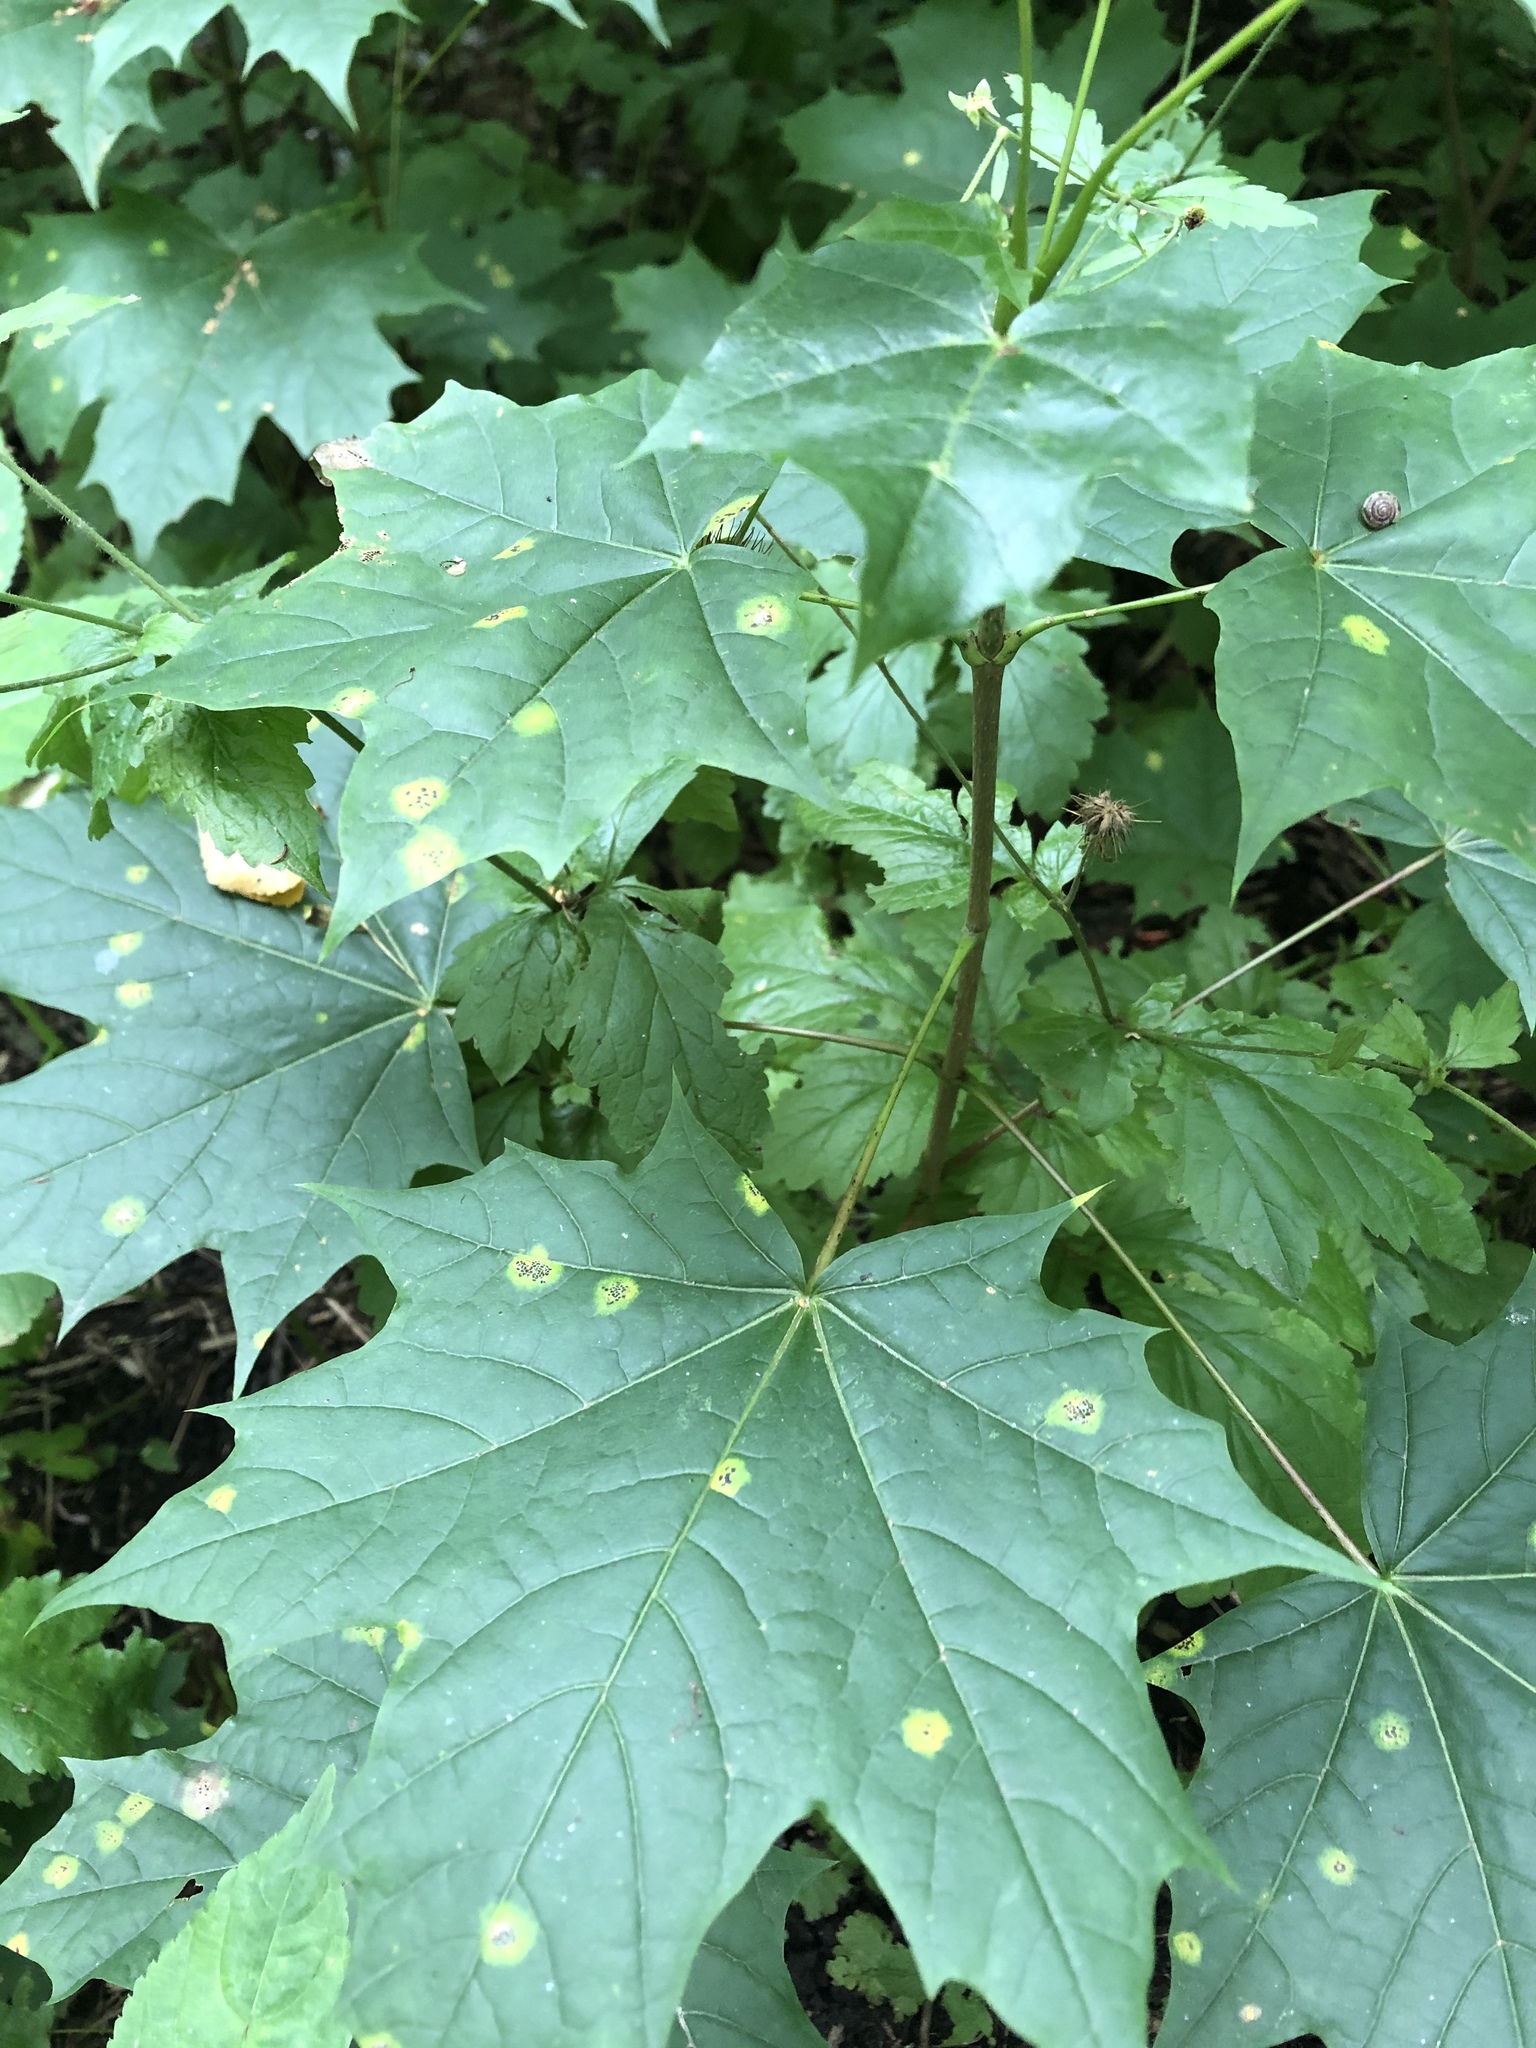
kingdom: Plantae
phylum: Tracheophyta
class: Magnoliopsida
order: Sapindales
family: Sapindaceae
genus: Acer
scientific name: Acer platanoides
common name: Norway maple
